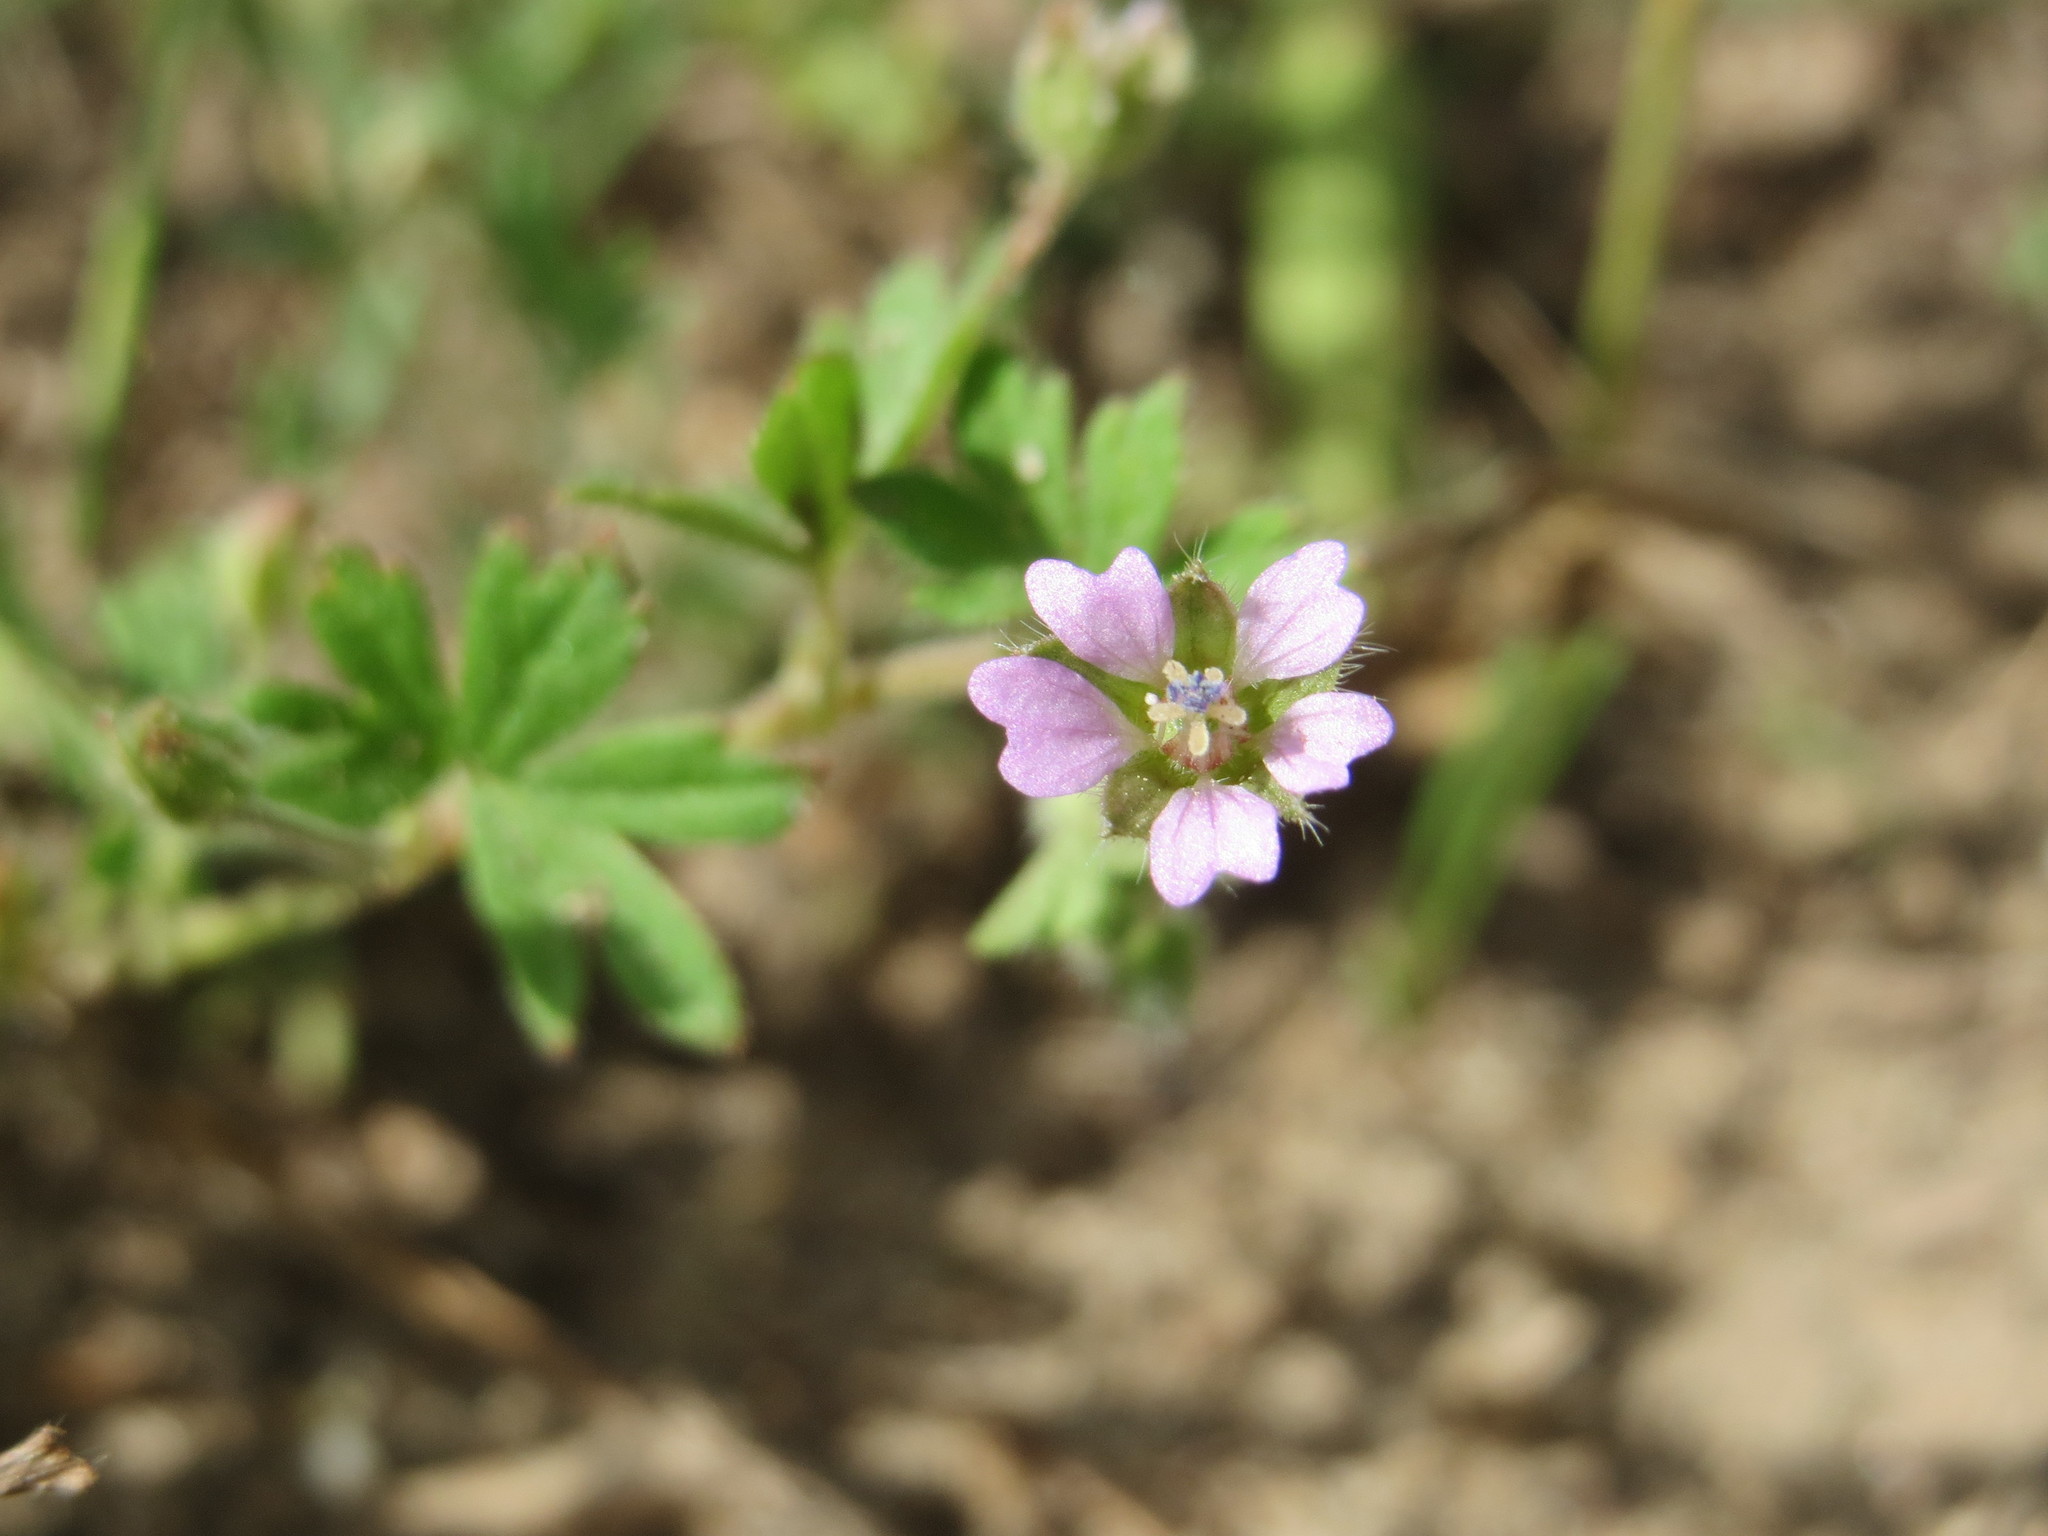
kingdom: Plantae
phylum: Tracheophyta
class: Magnoliopsida
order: Geraniales
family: Geraniaceae
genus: Geranium
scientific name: Geranium pusillum
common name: Small geranium
